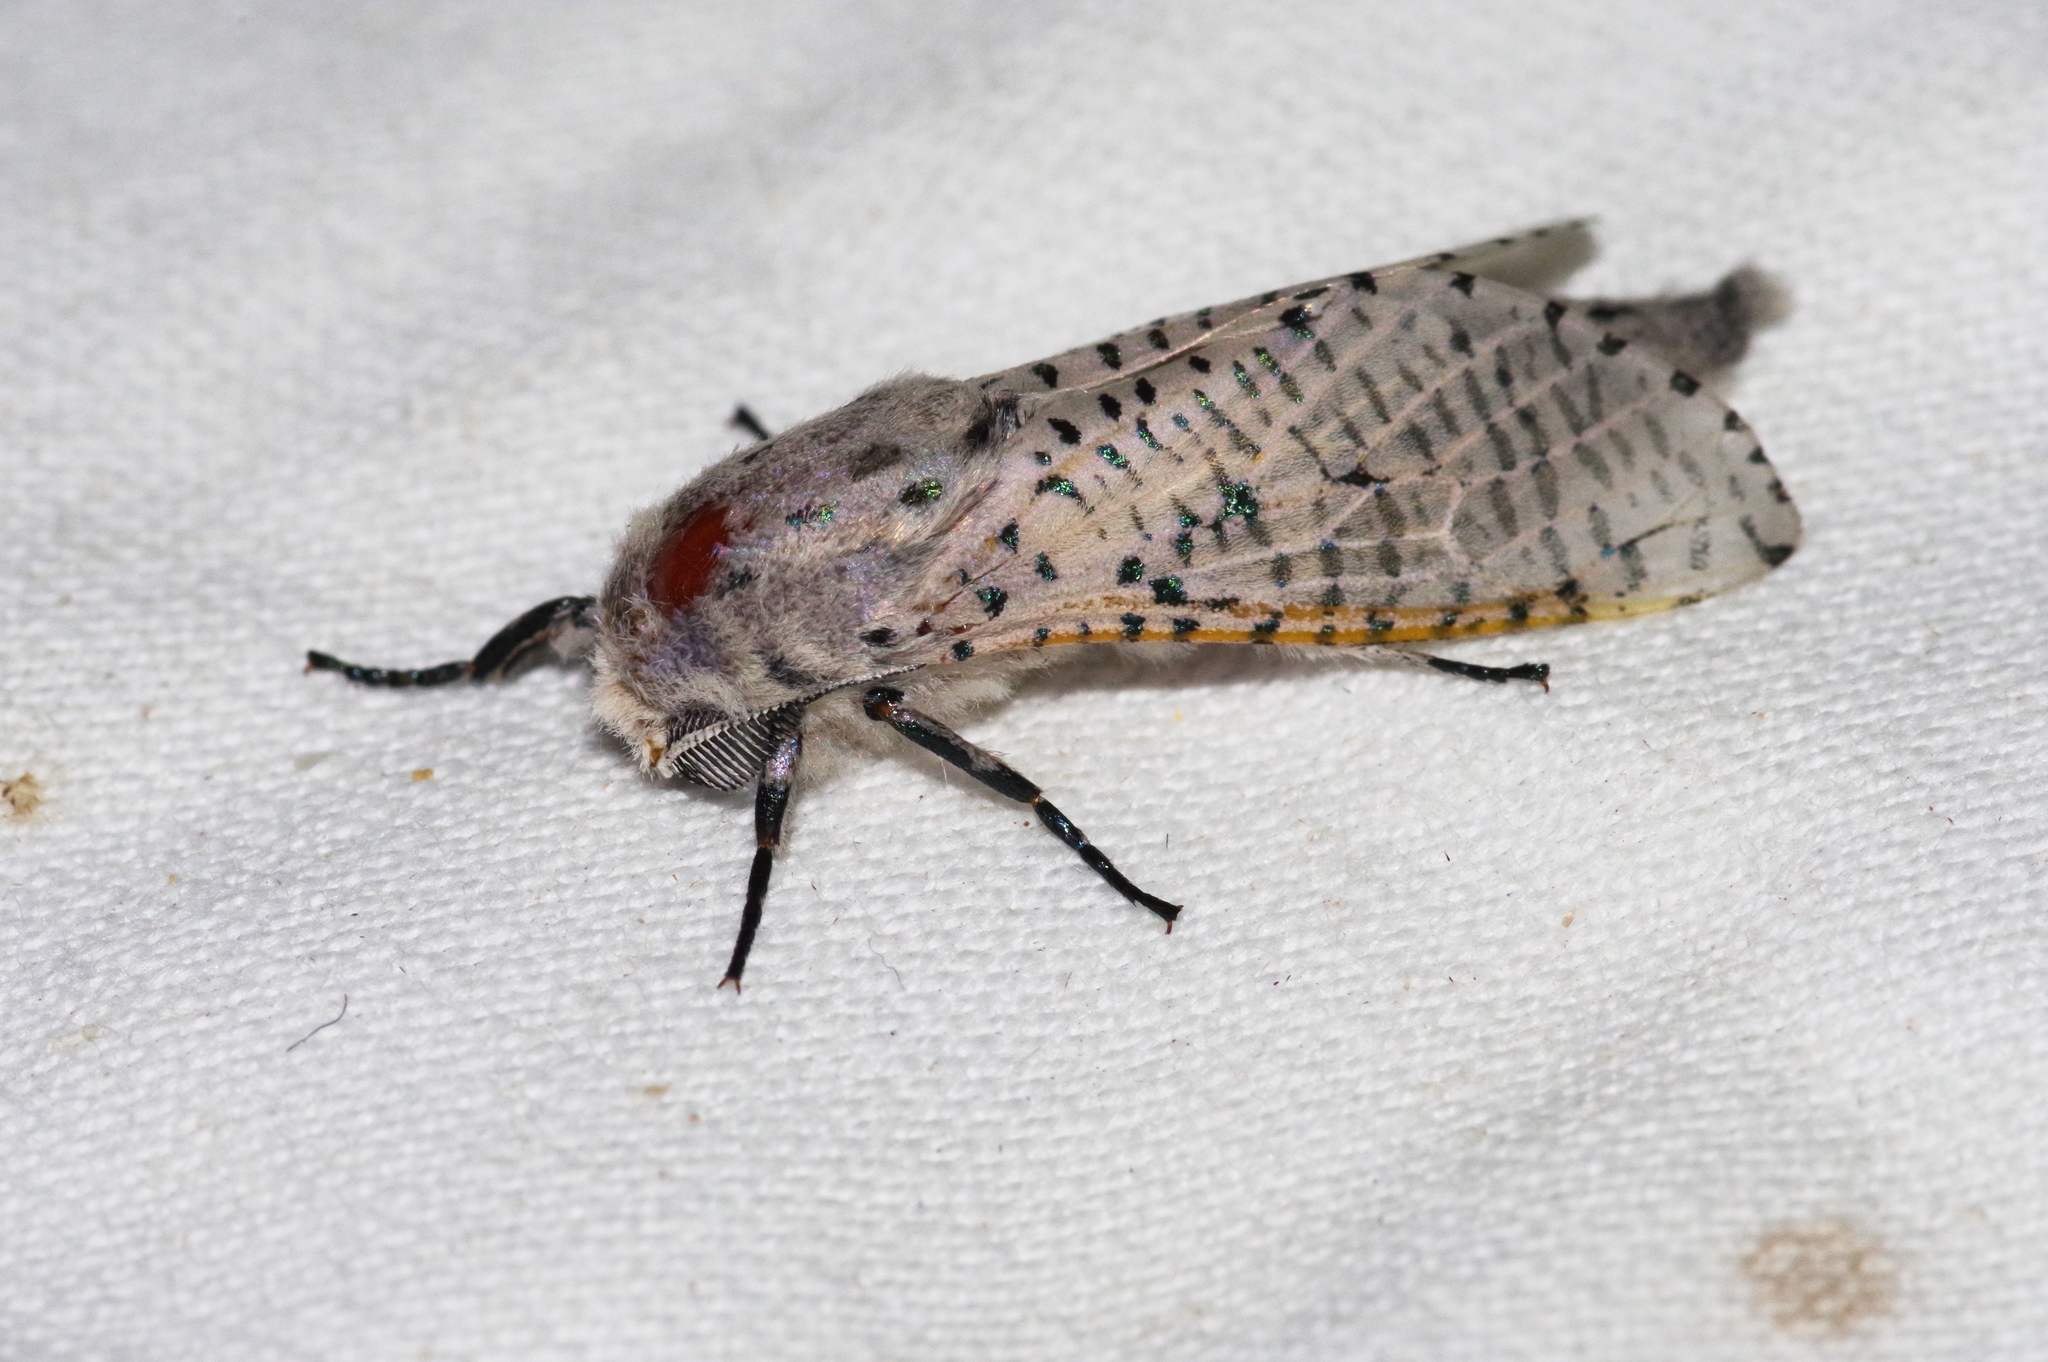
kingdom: Animalia
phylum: Arthropoda
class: Insecta
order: Lepidoptera
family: Cossidae
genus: Orientozeuzera
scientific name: Orientozeuzera caudata
